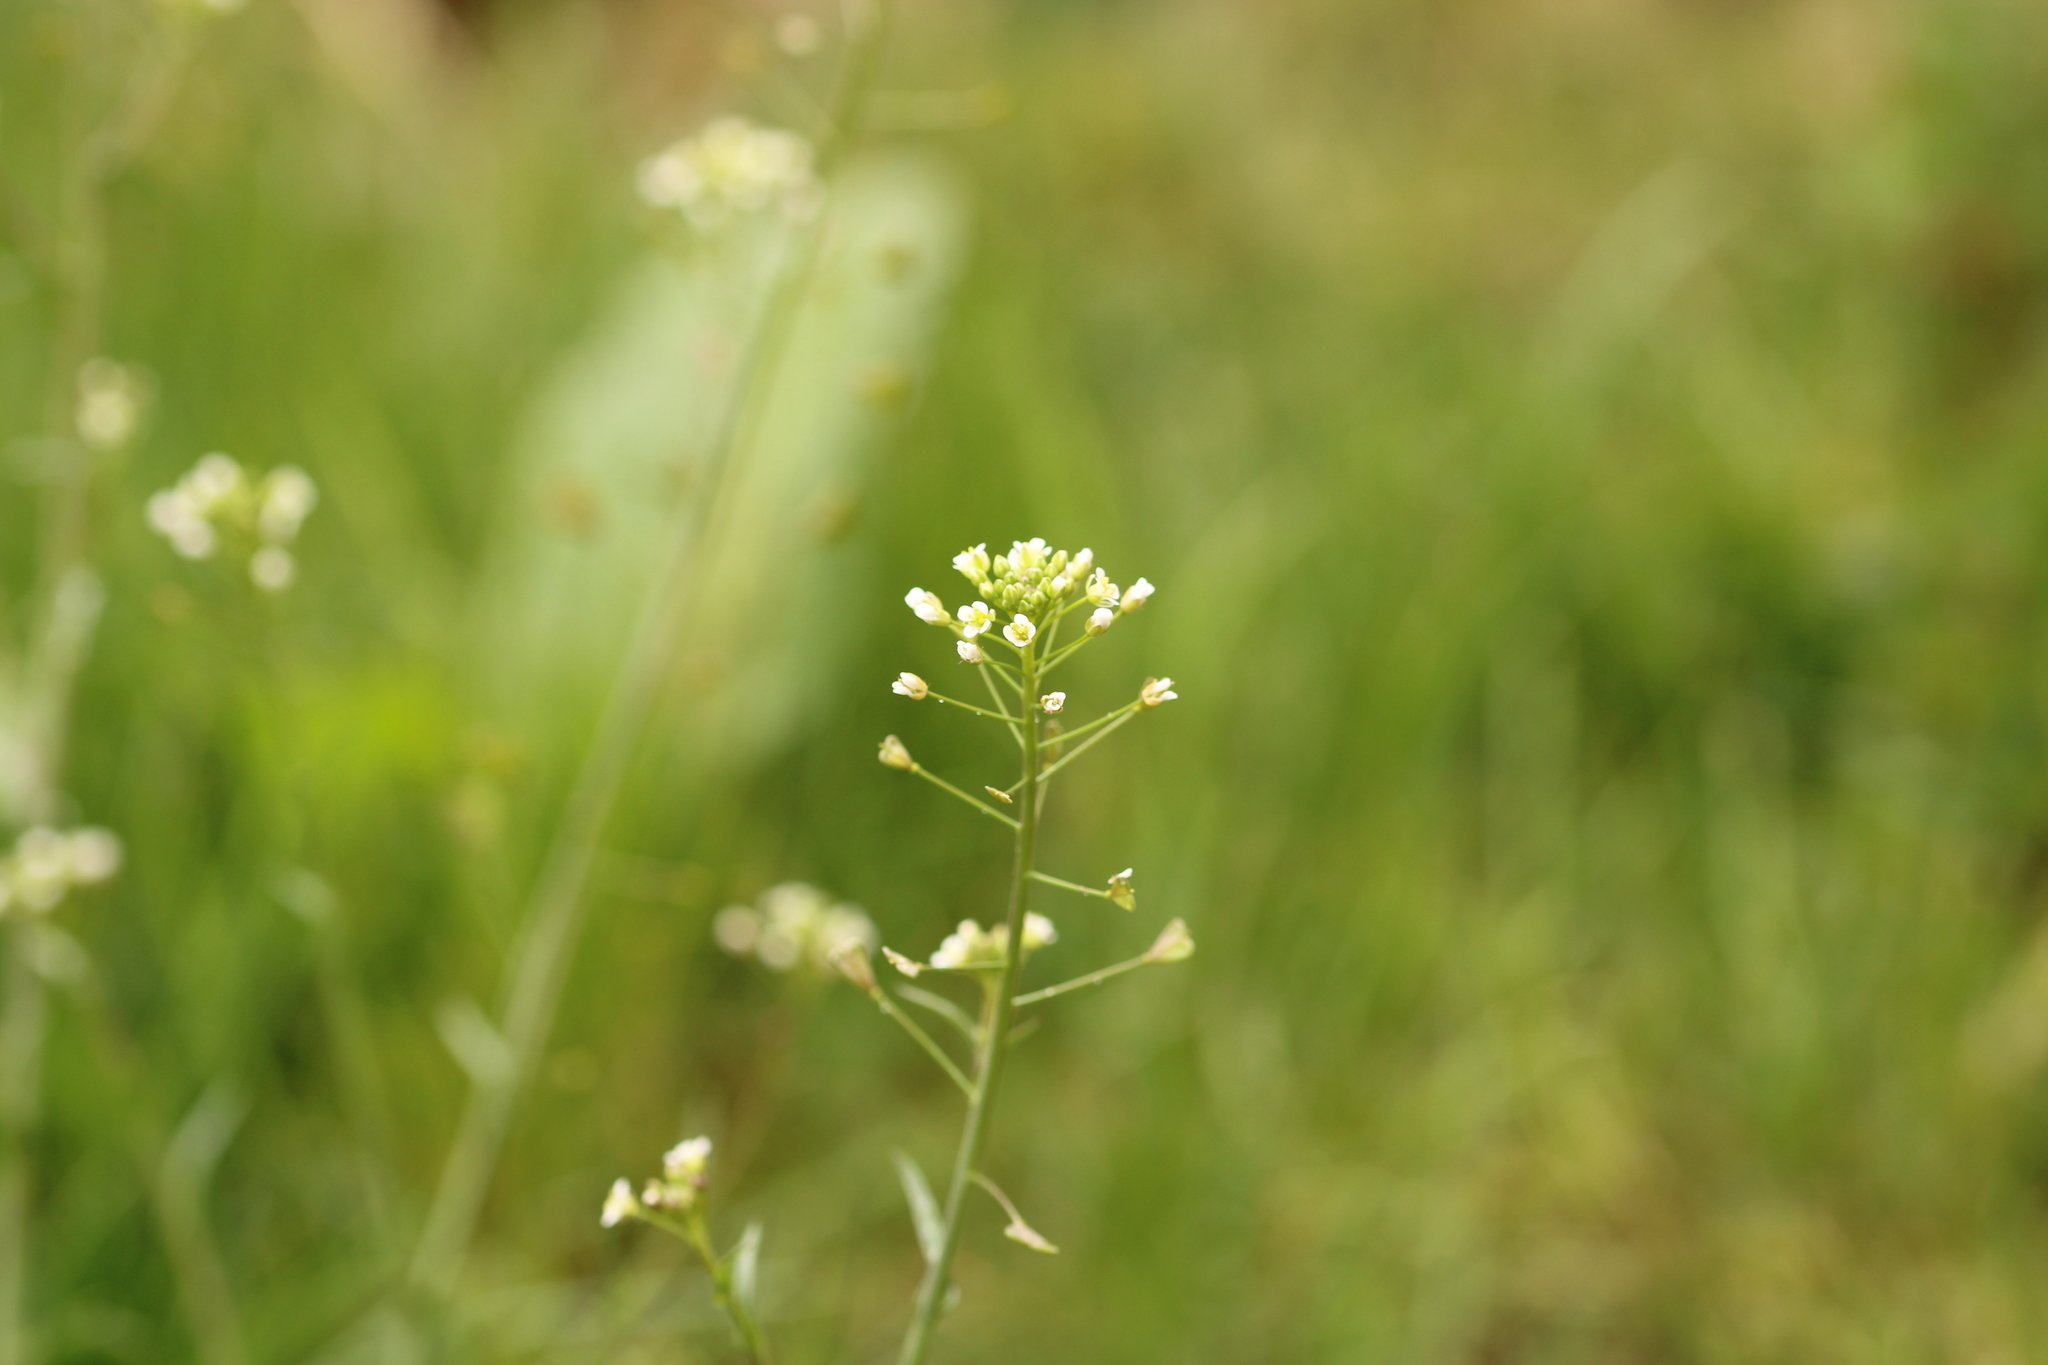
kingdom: Plantae
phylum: Tracheophyta
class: Magnoliopsida
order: Brassicales
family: Brassicaceae
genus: Capsella
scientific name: Capsella bursa-pastoris
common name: Shepherd's purse
